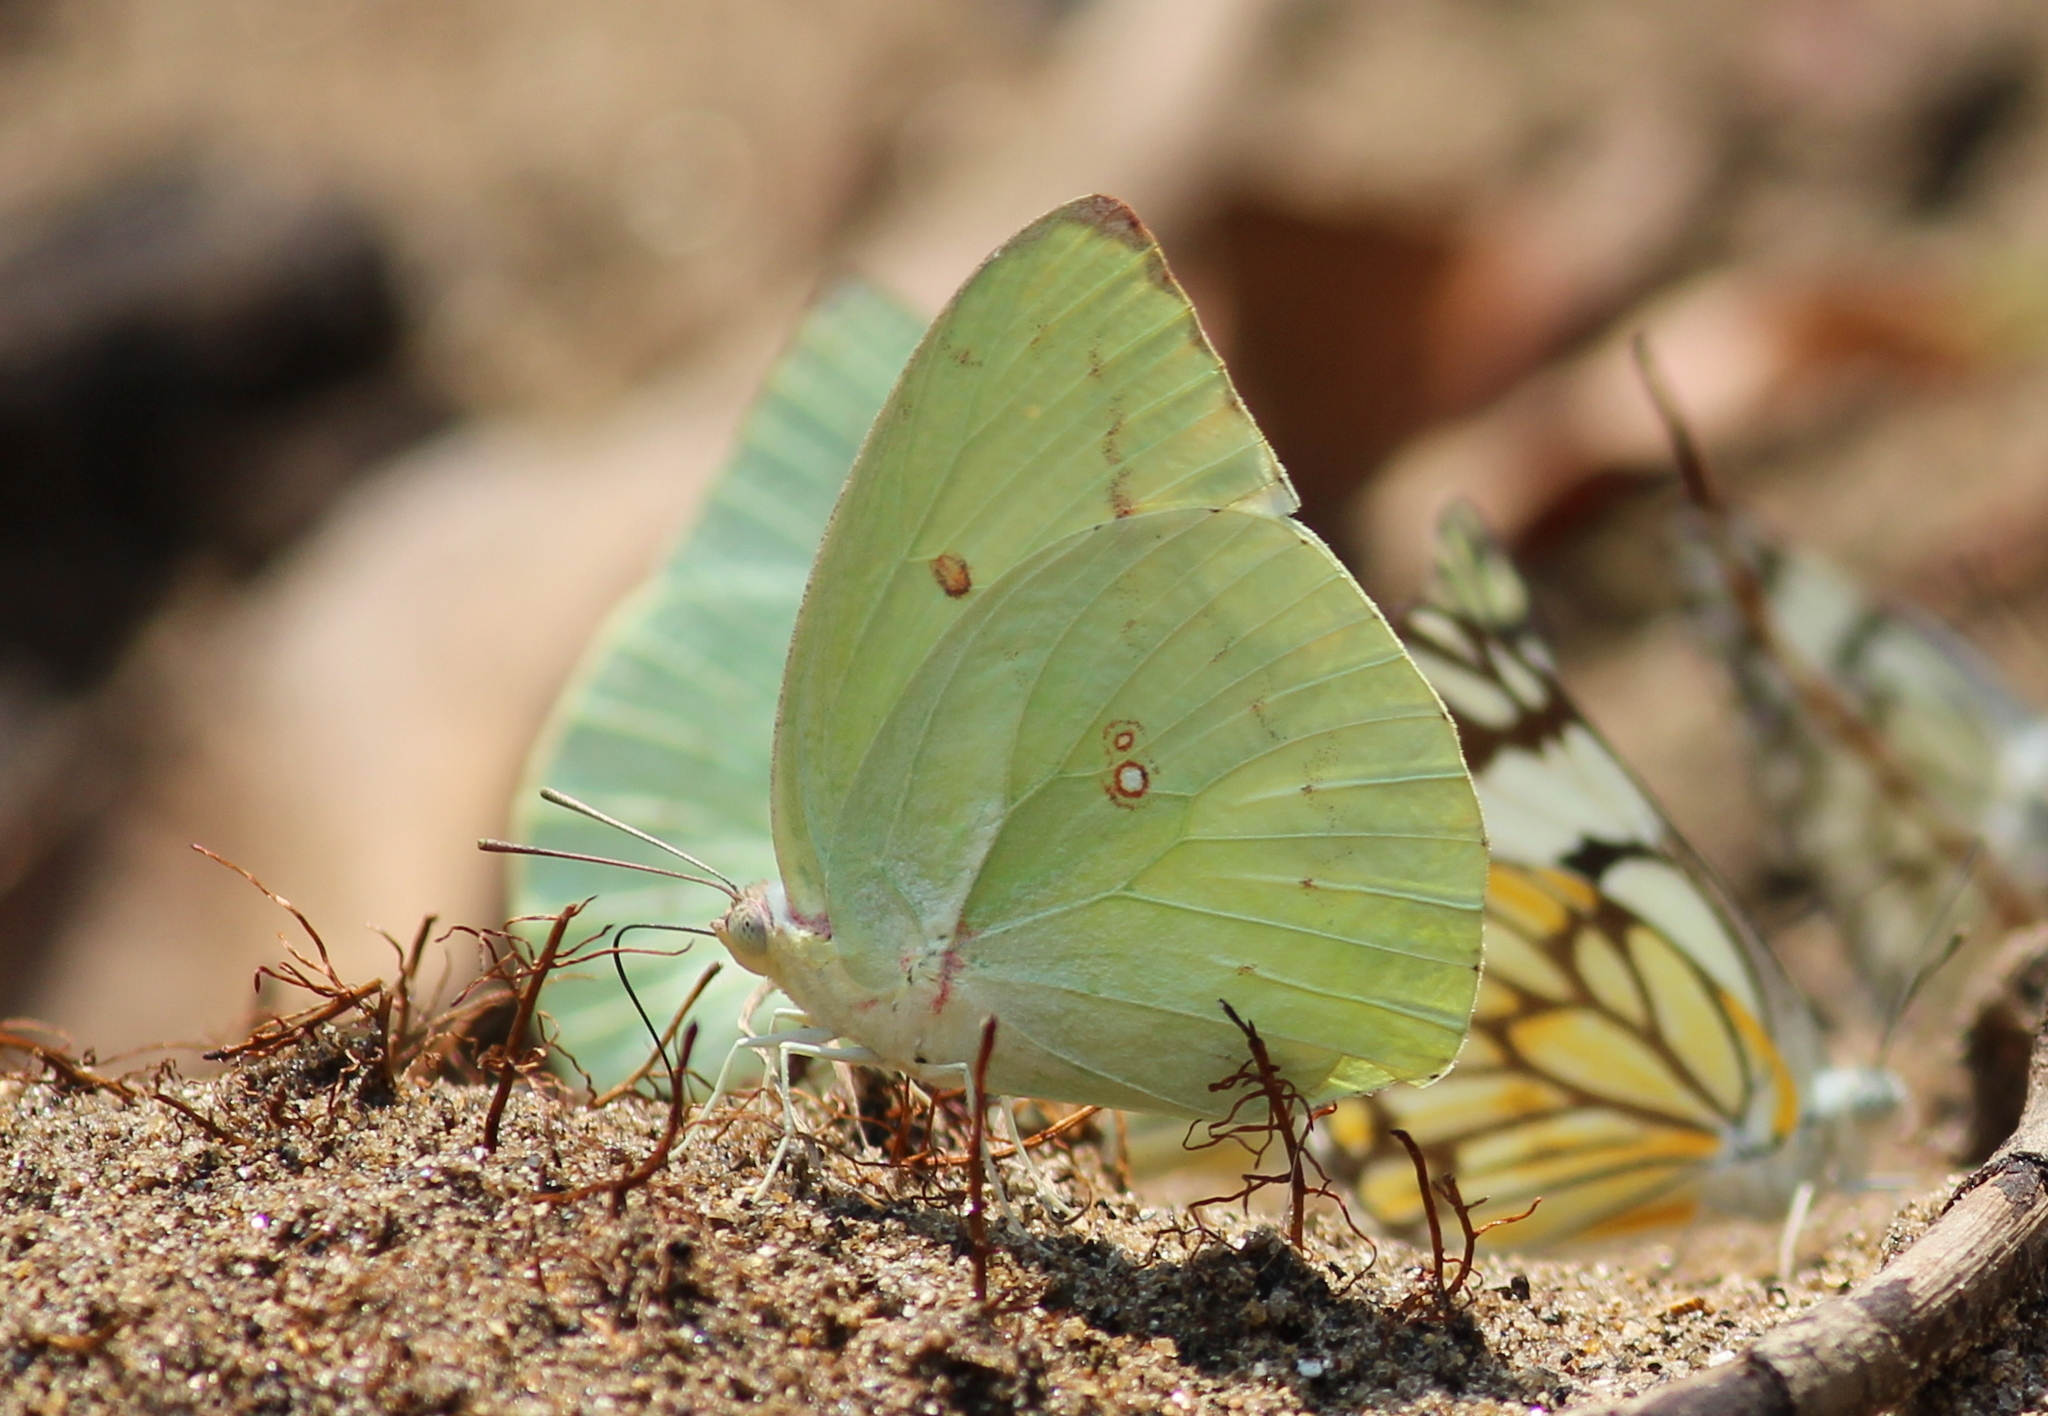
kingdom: Animalia
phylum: Arthropoda
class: Insecta
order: Lepidoptera
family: Pieridae
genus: Catopsilia
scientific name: Catopsilia pomona
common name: Common emigrant
